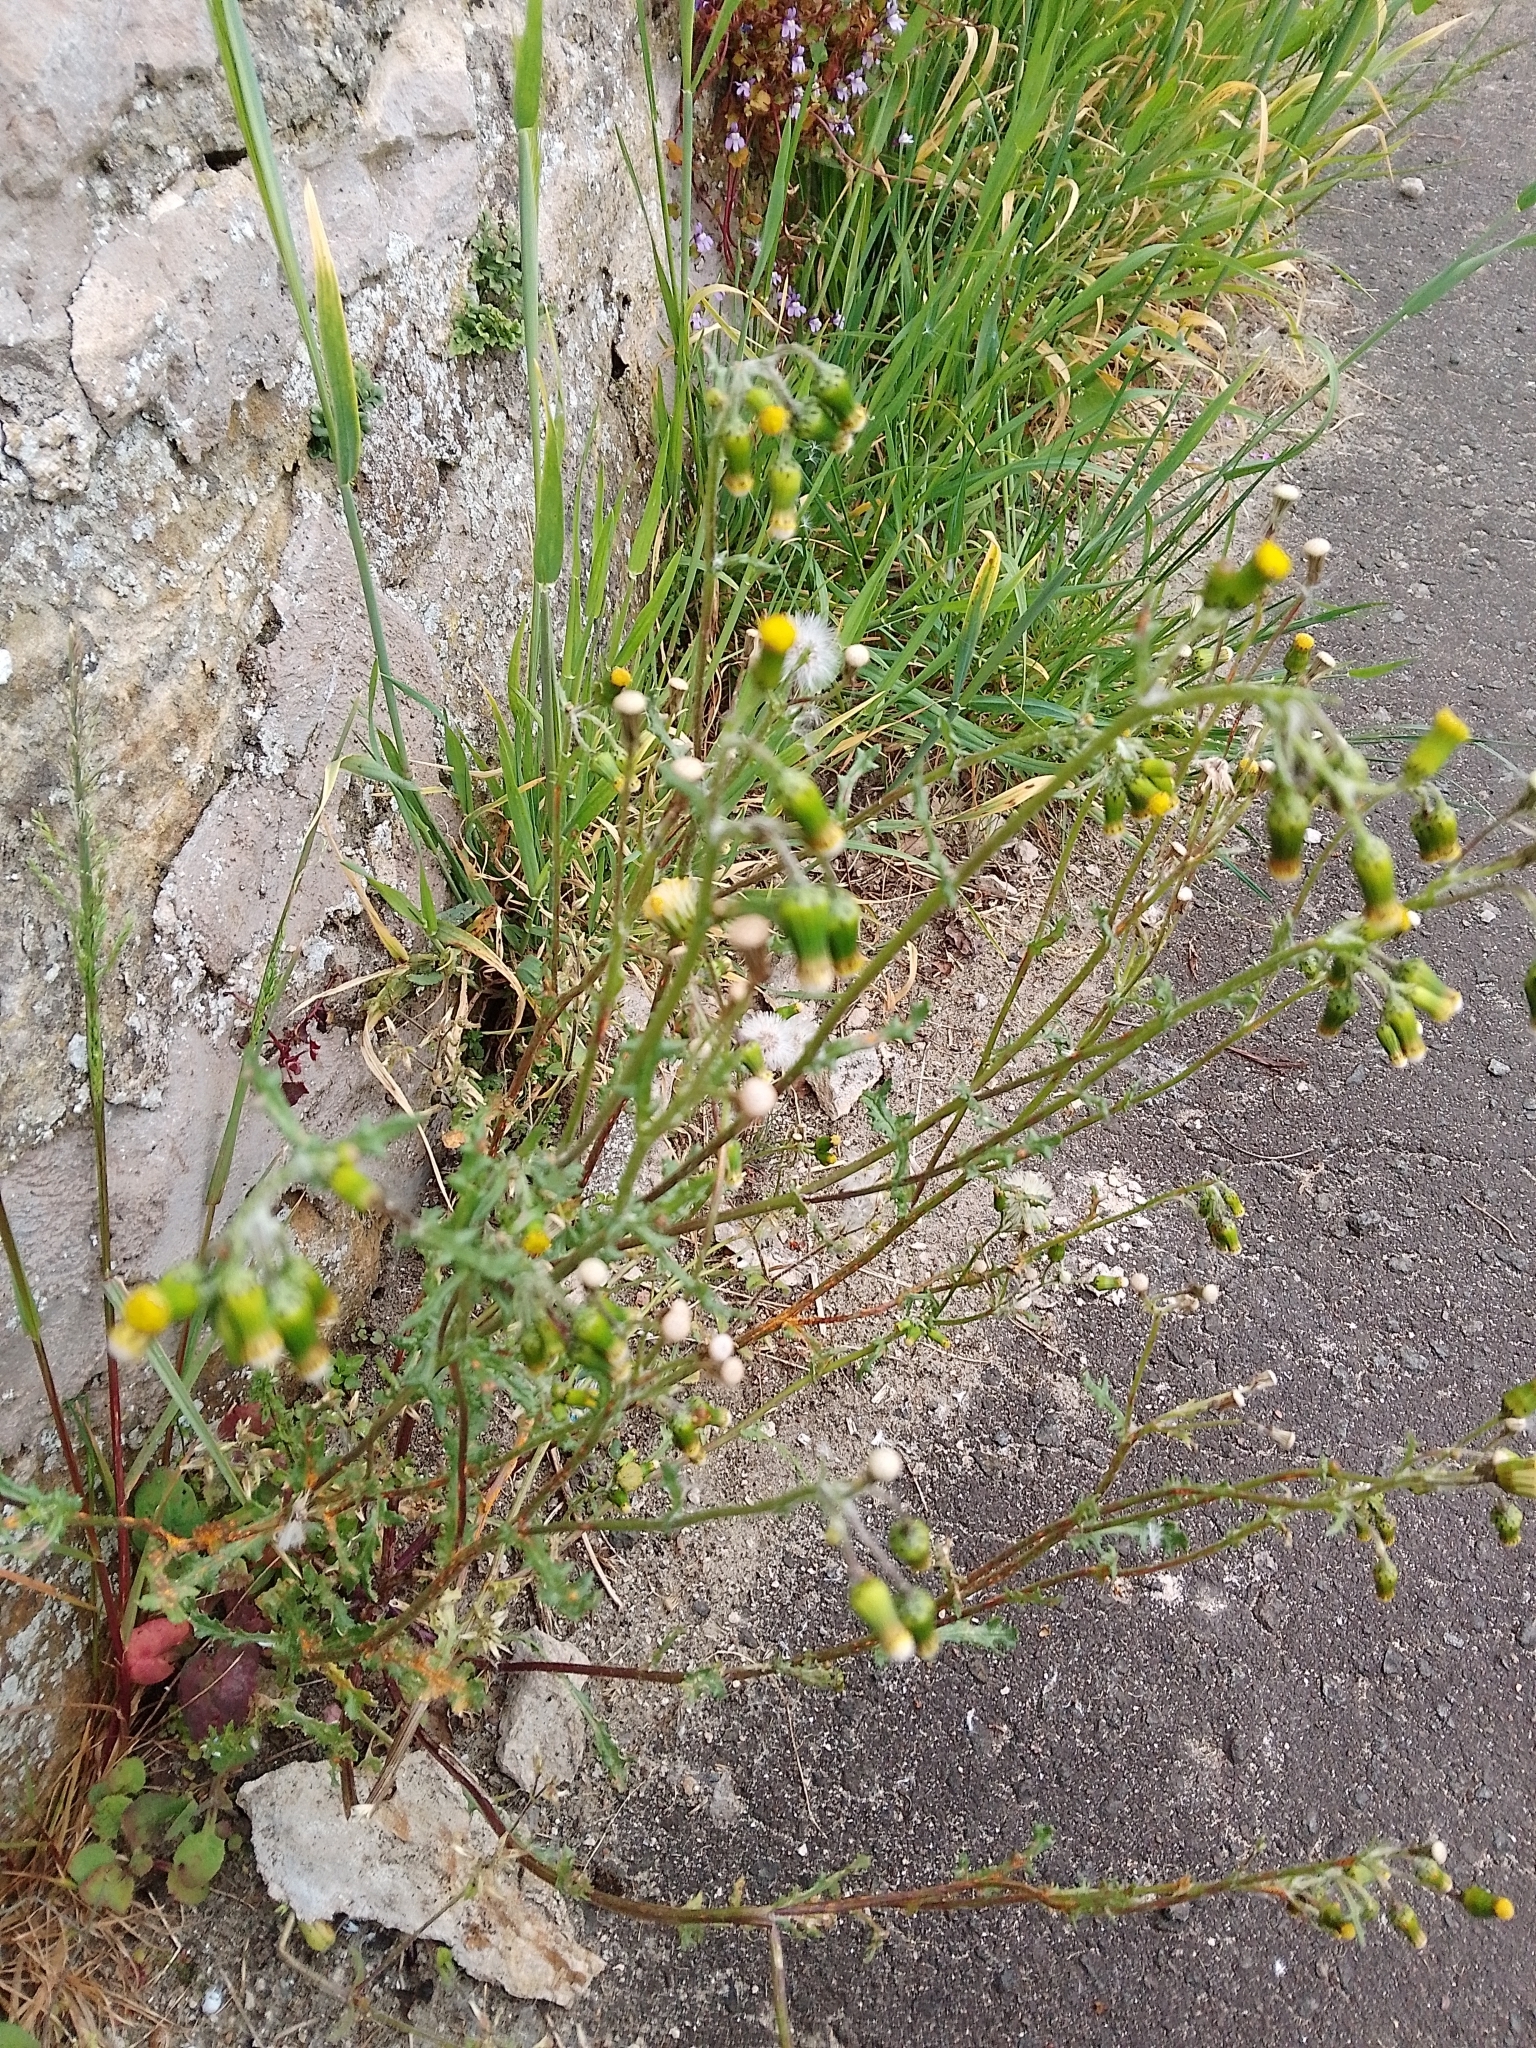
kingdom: Plantae
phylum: Tracheophyta
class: Magnoliopsida
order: Asterales
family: Asteraceae
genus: Senecio
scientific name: Senecio vulgaris
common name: Old-man-in-the-spring
